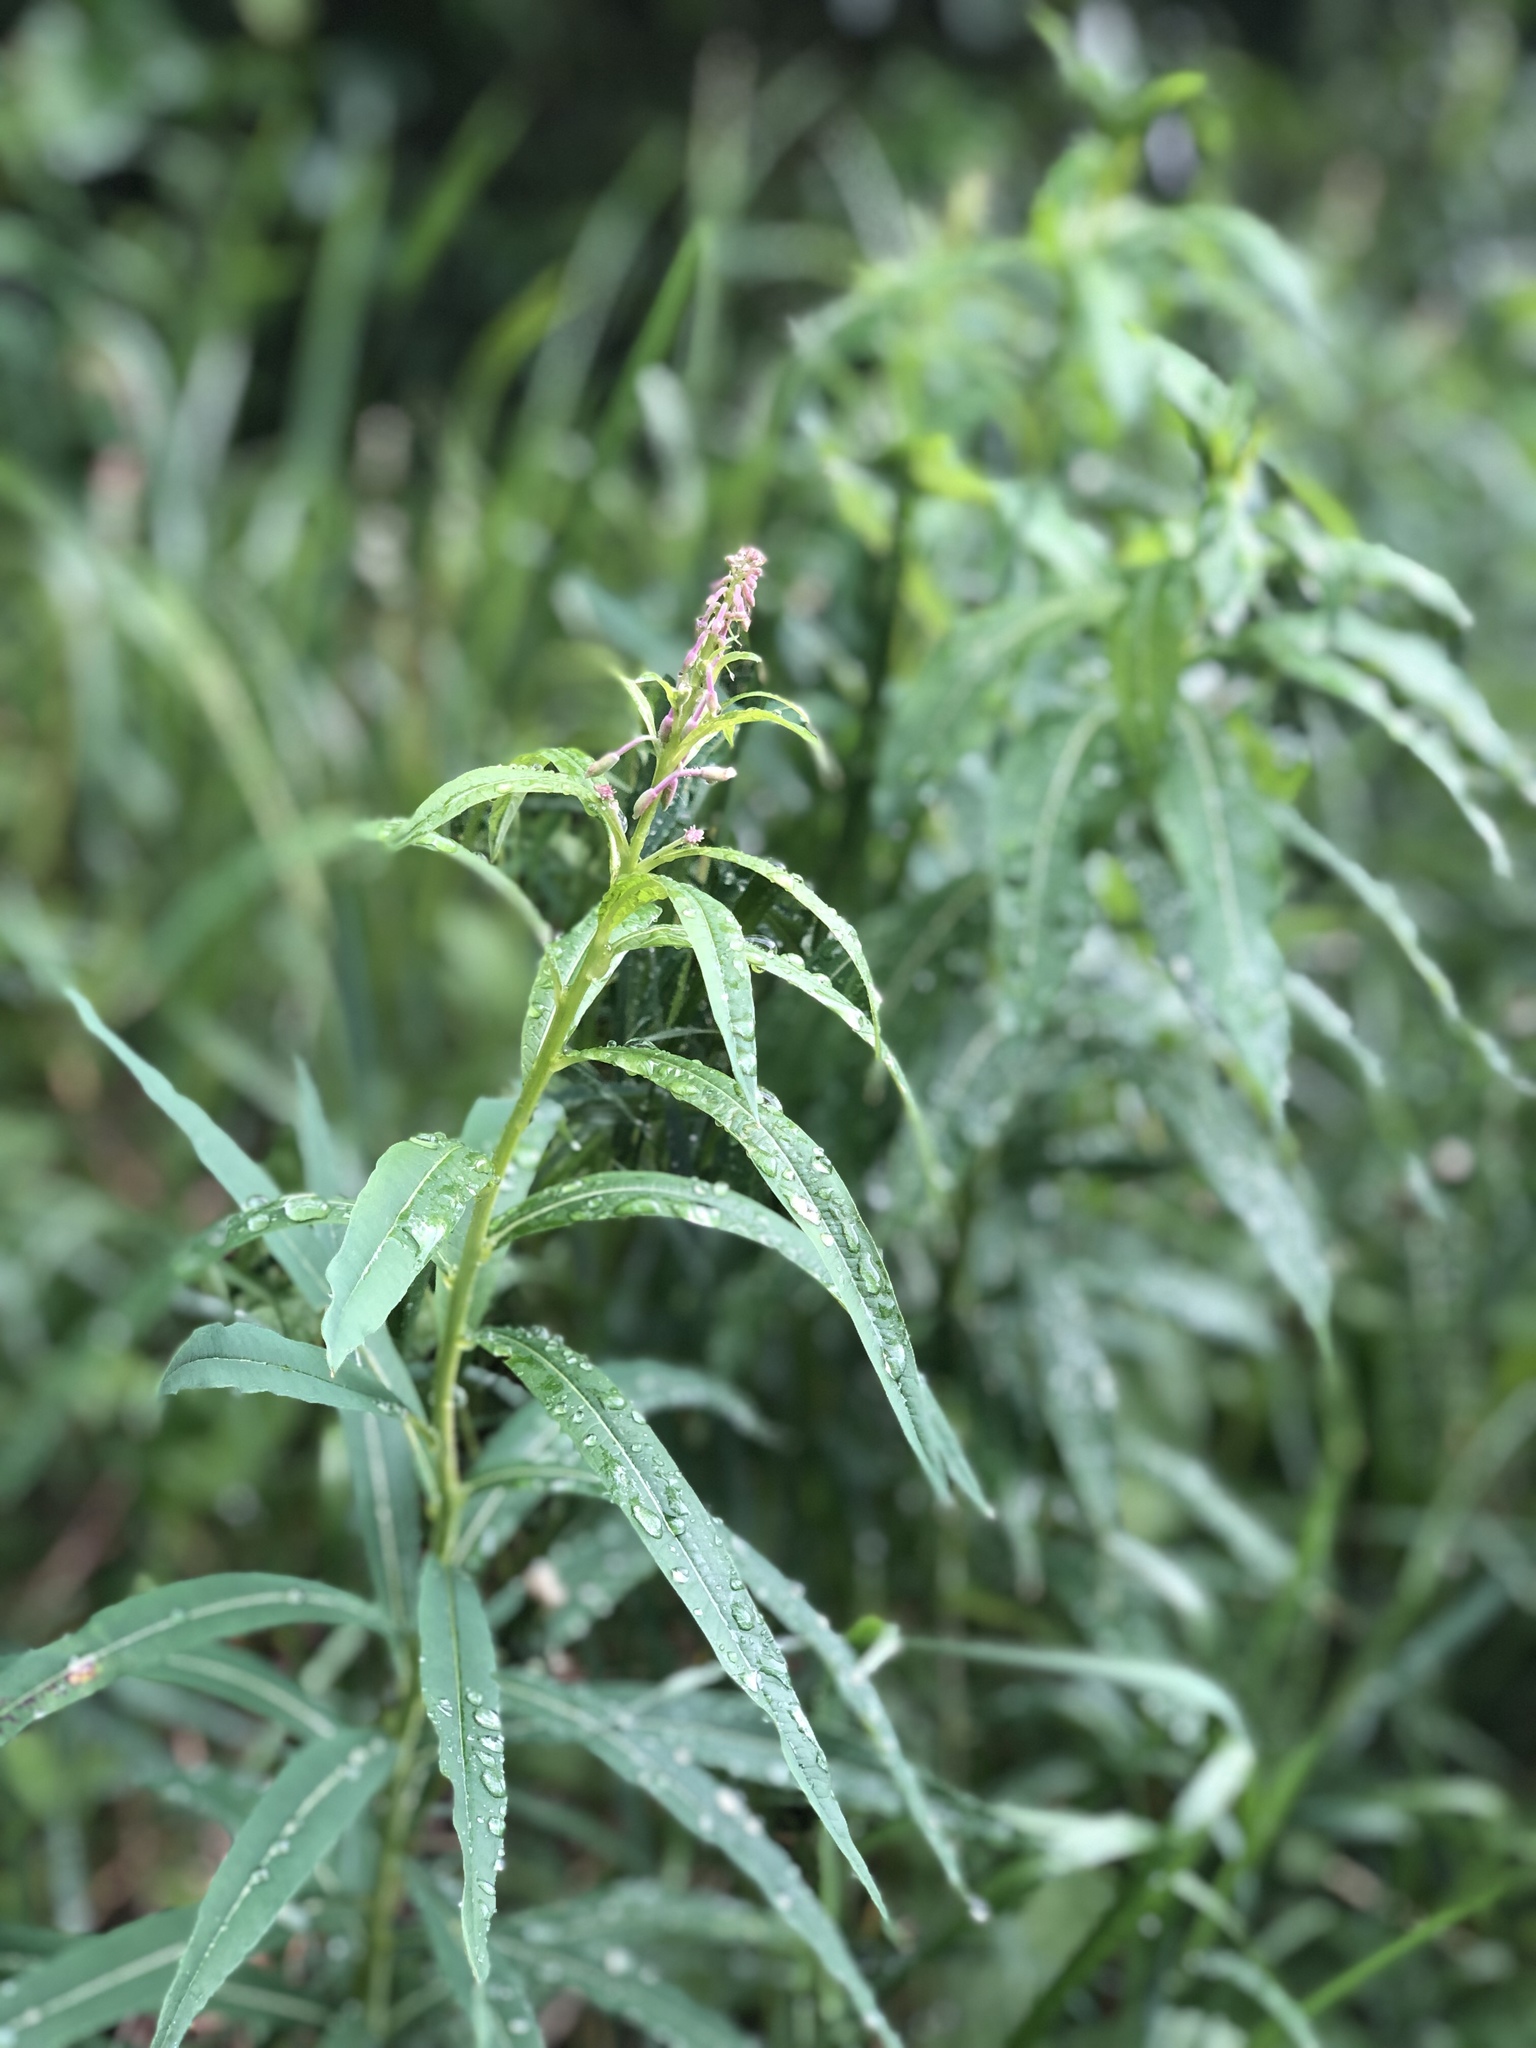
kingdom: Plantae
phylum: Tracheophyta
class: Magnoliopsida
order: Myrtales
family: Onagraceae
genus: Chamaenerion
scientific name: Chamaenerion angustifolium
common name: Fireweed
